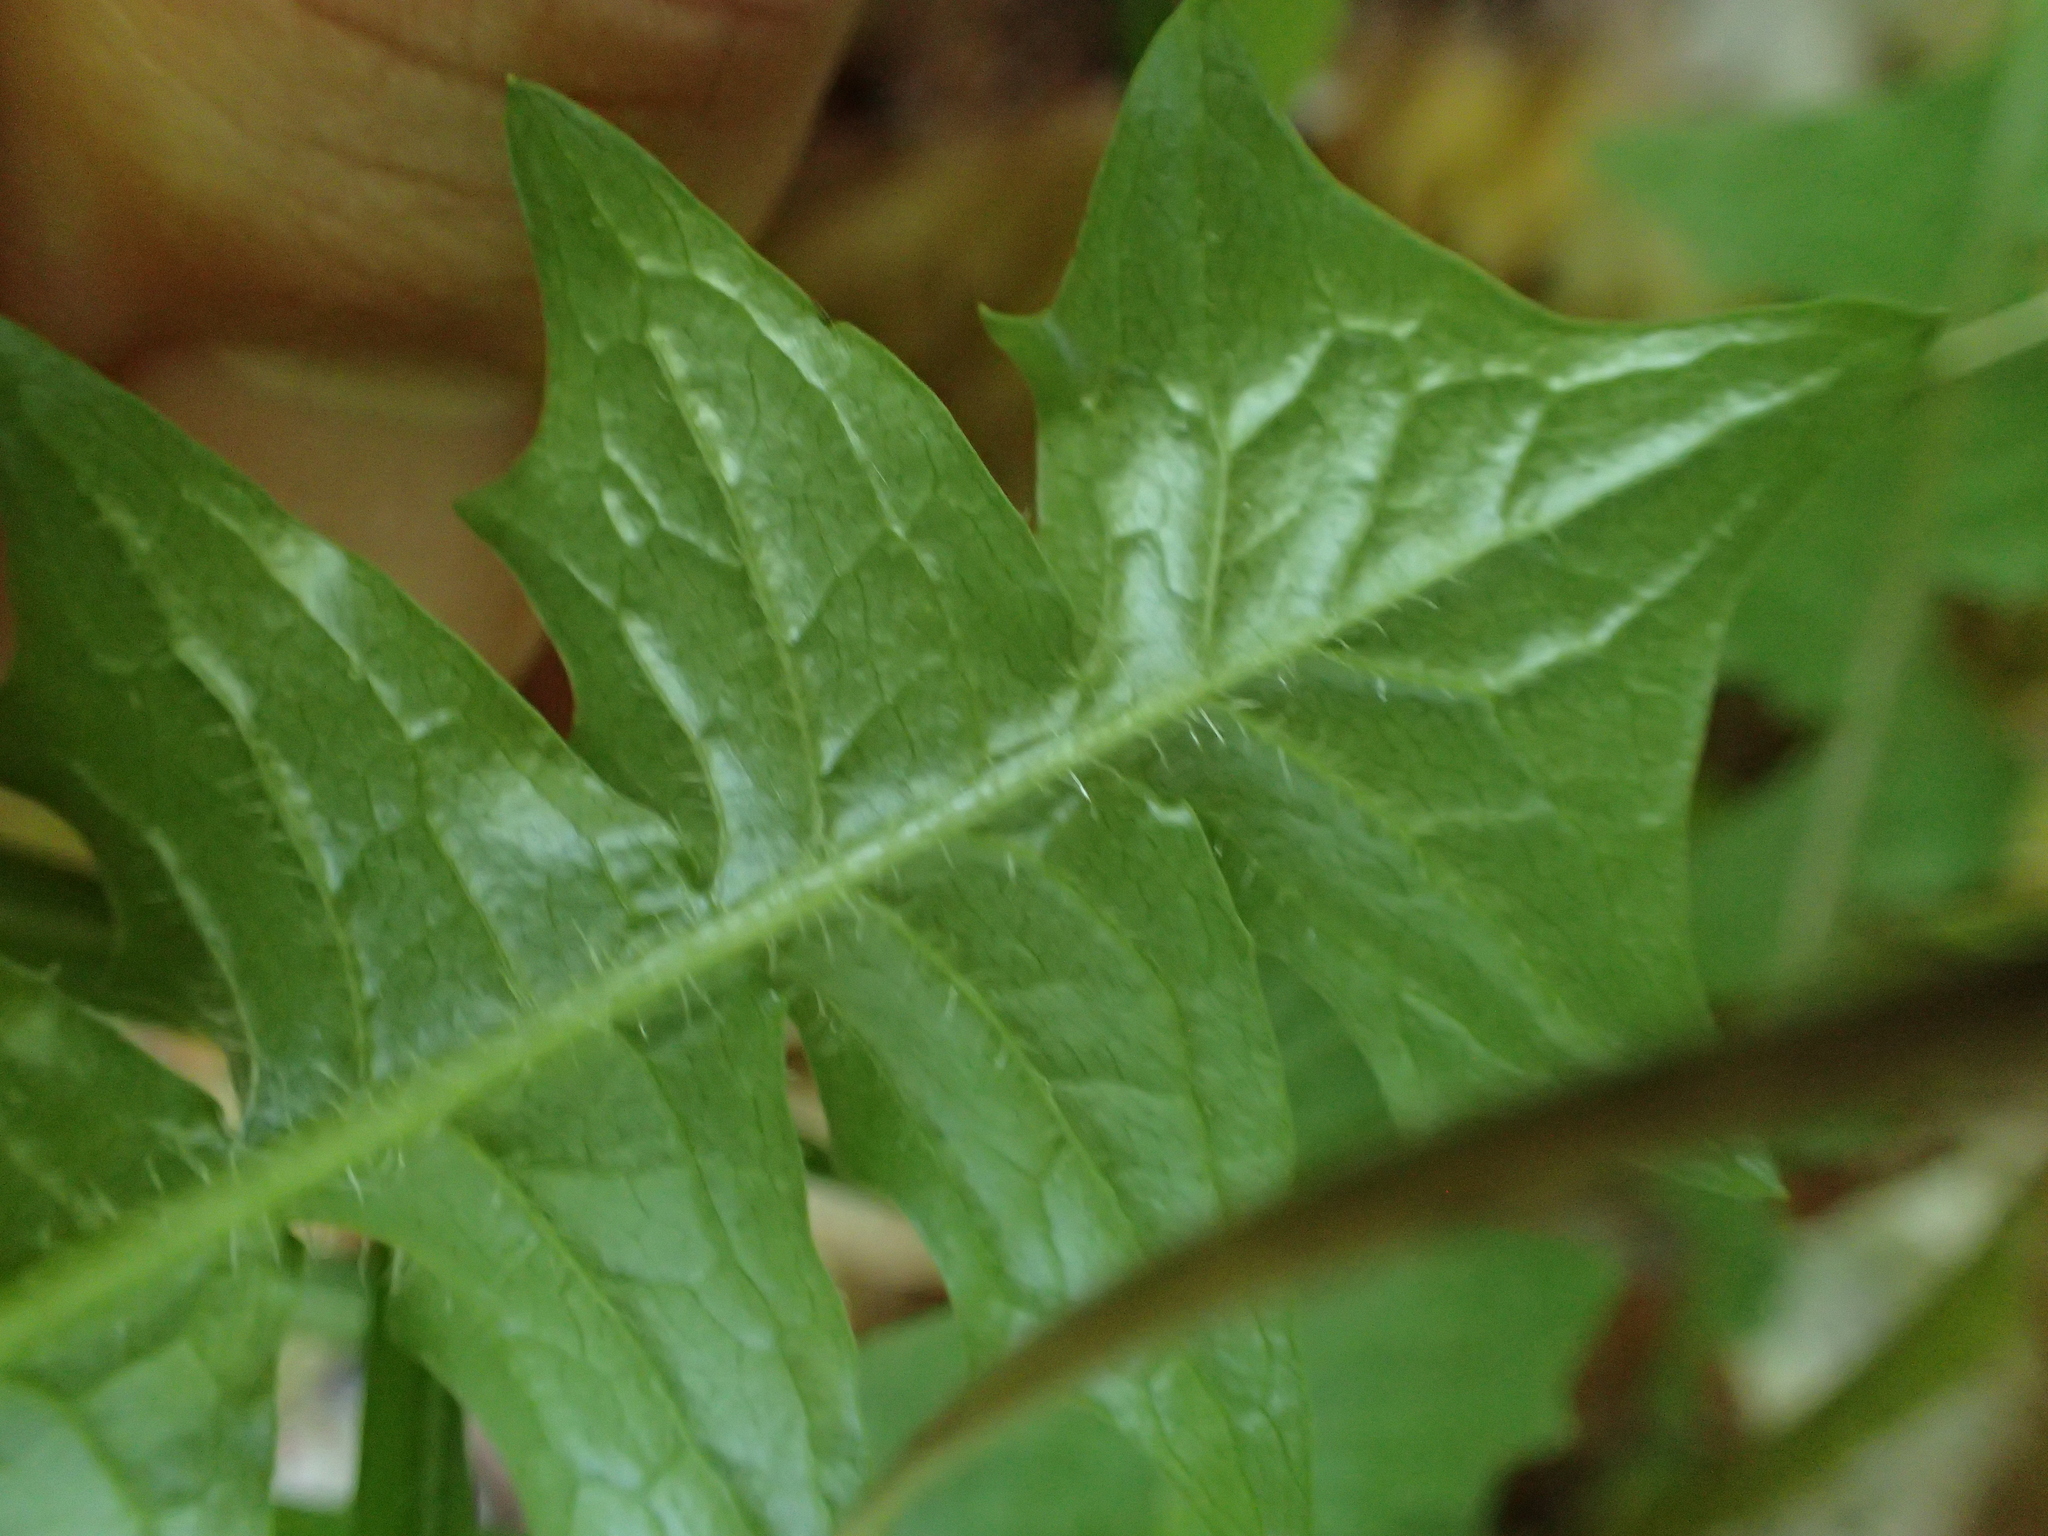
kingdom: Plantae
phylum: Tracheophyta
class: Magnoliopsida
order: Asterales
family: Asteraceae
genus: Aposeris
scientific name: Aposeris foetida
